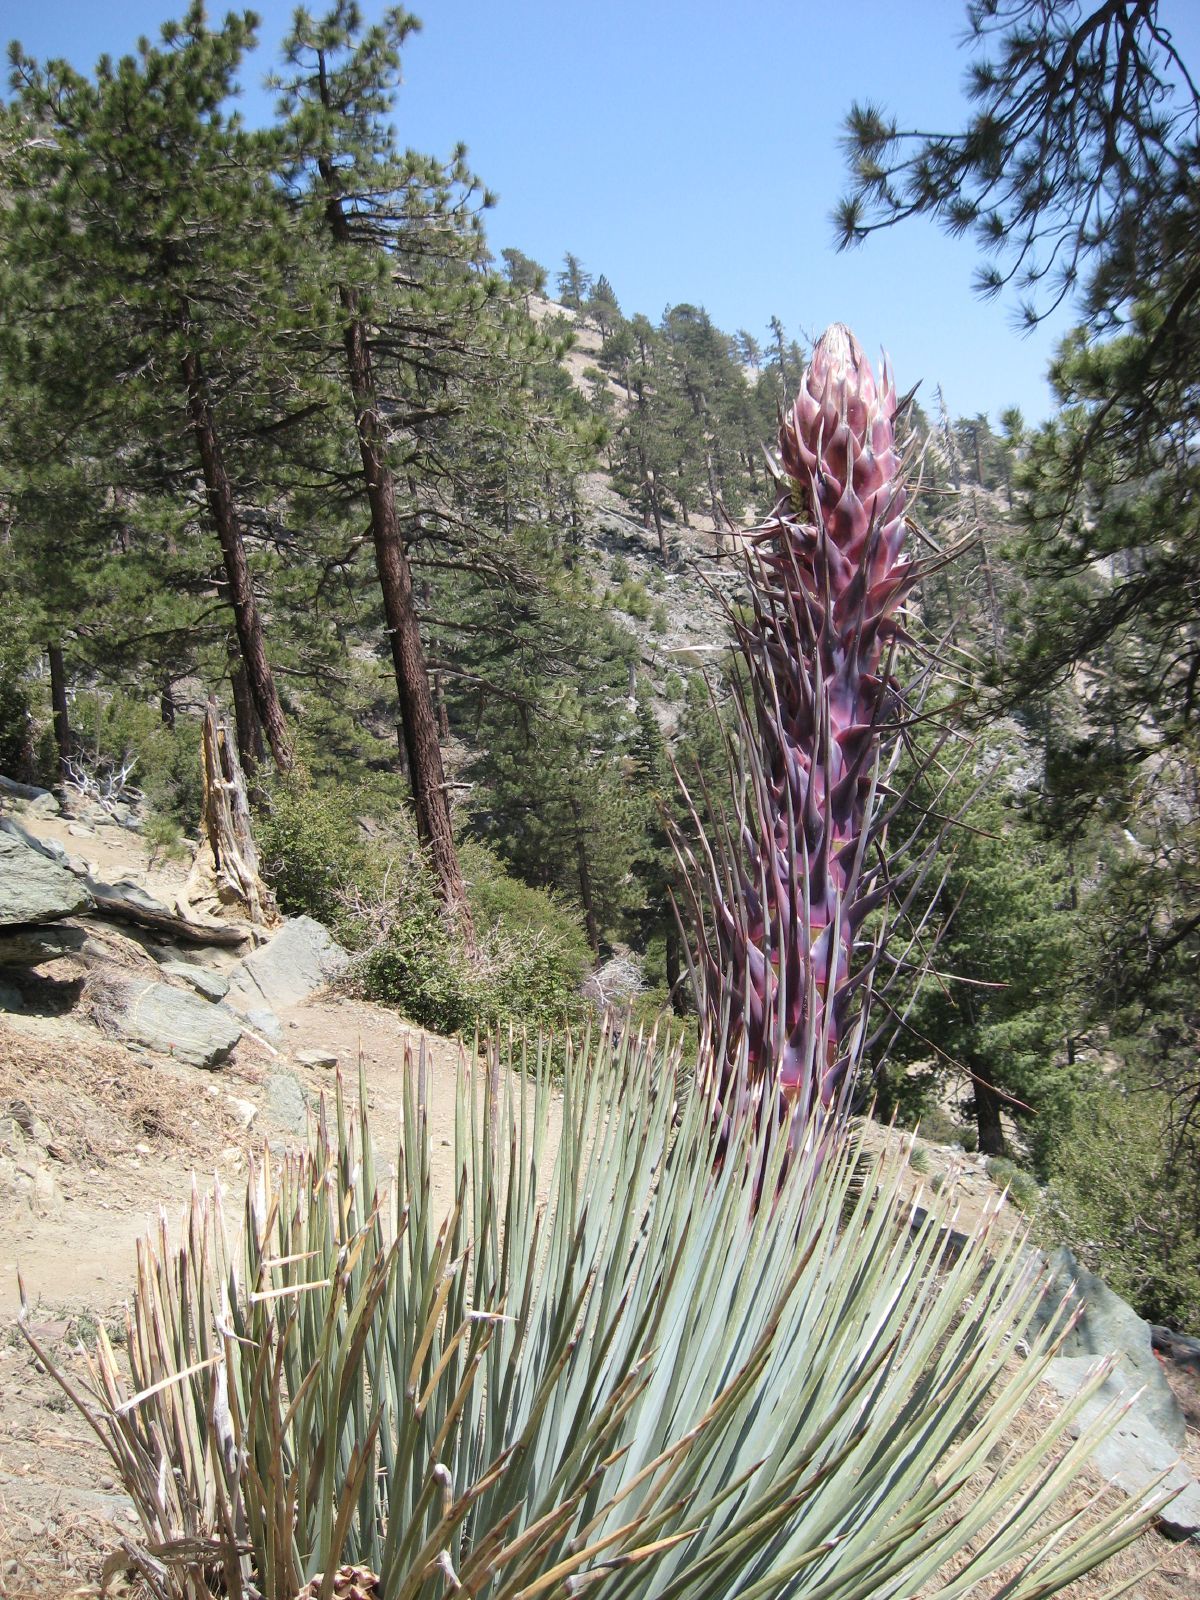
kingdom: Plantae
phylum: Tracheophyta
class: Liliopsida
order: Asparagales
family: Asparagaceae
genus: Hesperoyucca
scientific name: Hesperoyucca whipplei
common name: Our lord's-candle
